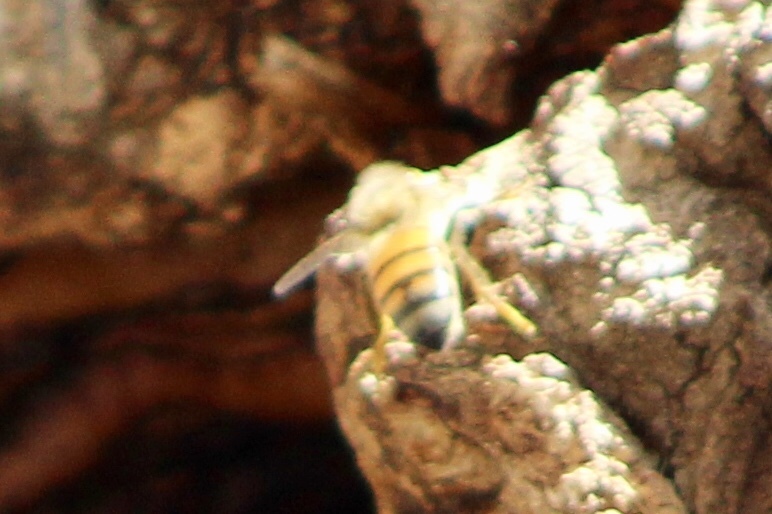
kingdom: Animalia
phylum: Arthropoda
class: Insecta
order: Hymenoptera
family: Apidae
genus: Apis
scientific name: Apis mellifera
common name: Honey bee
